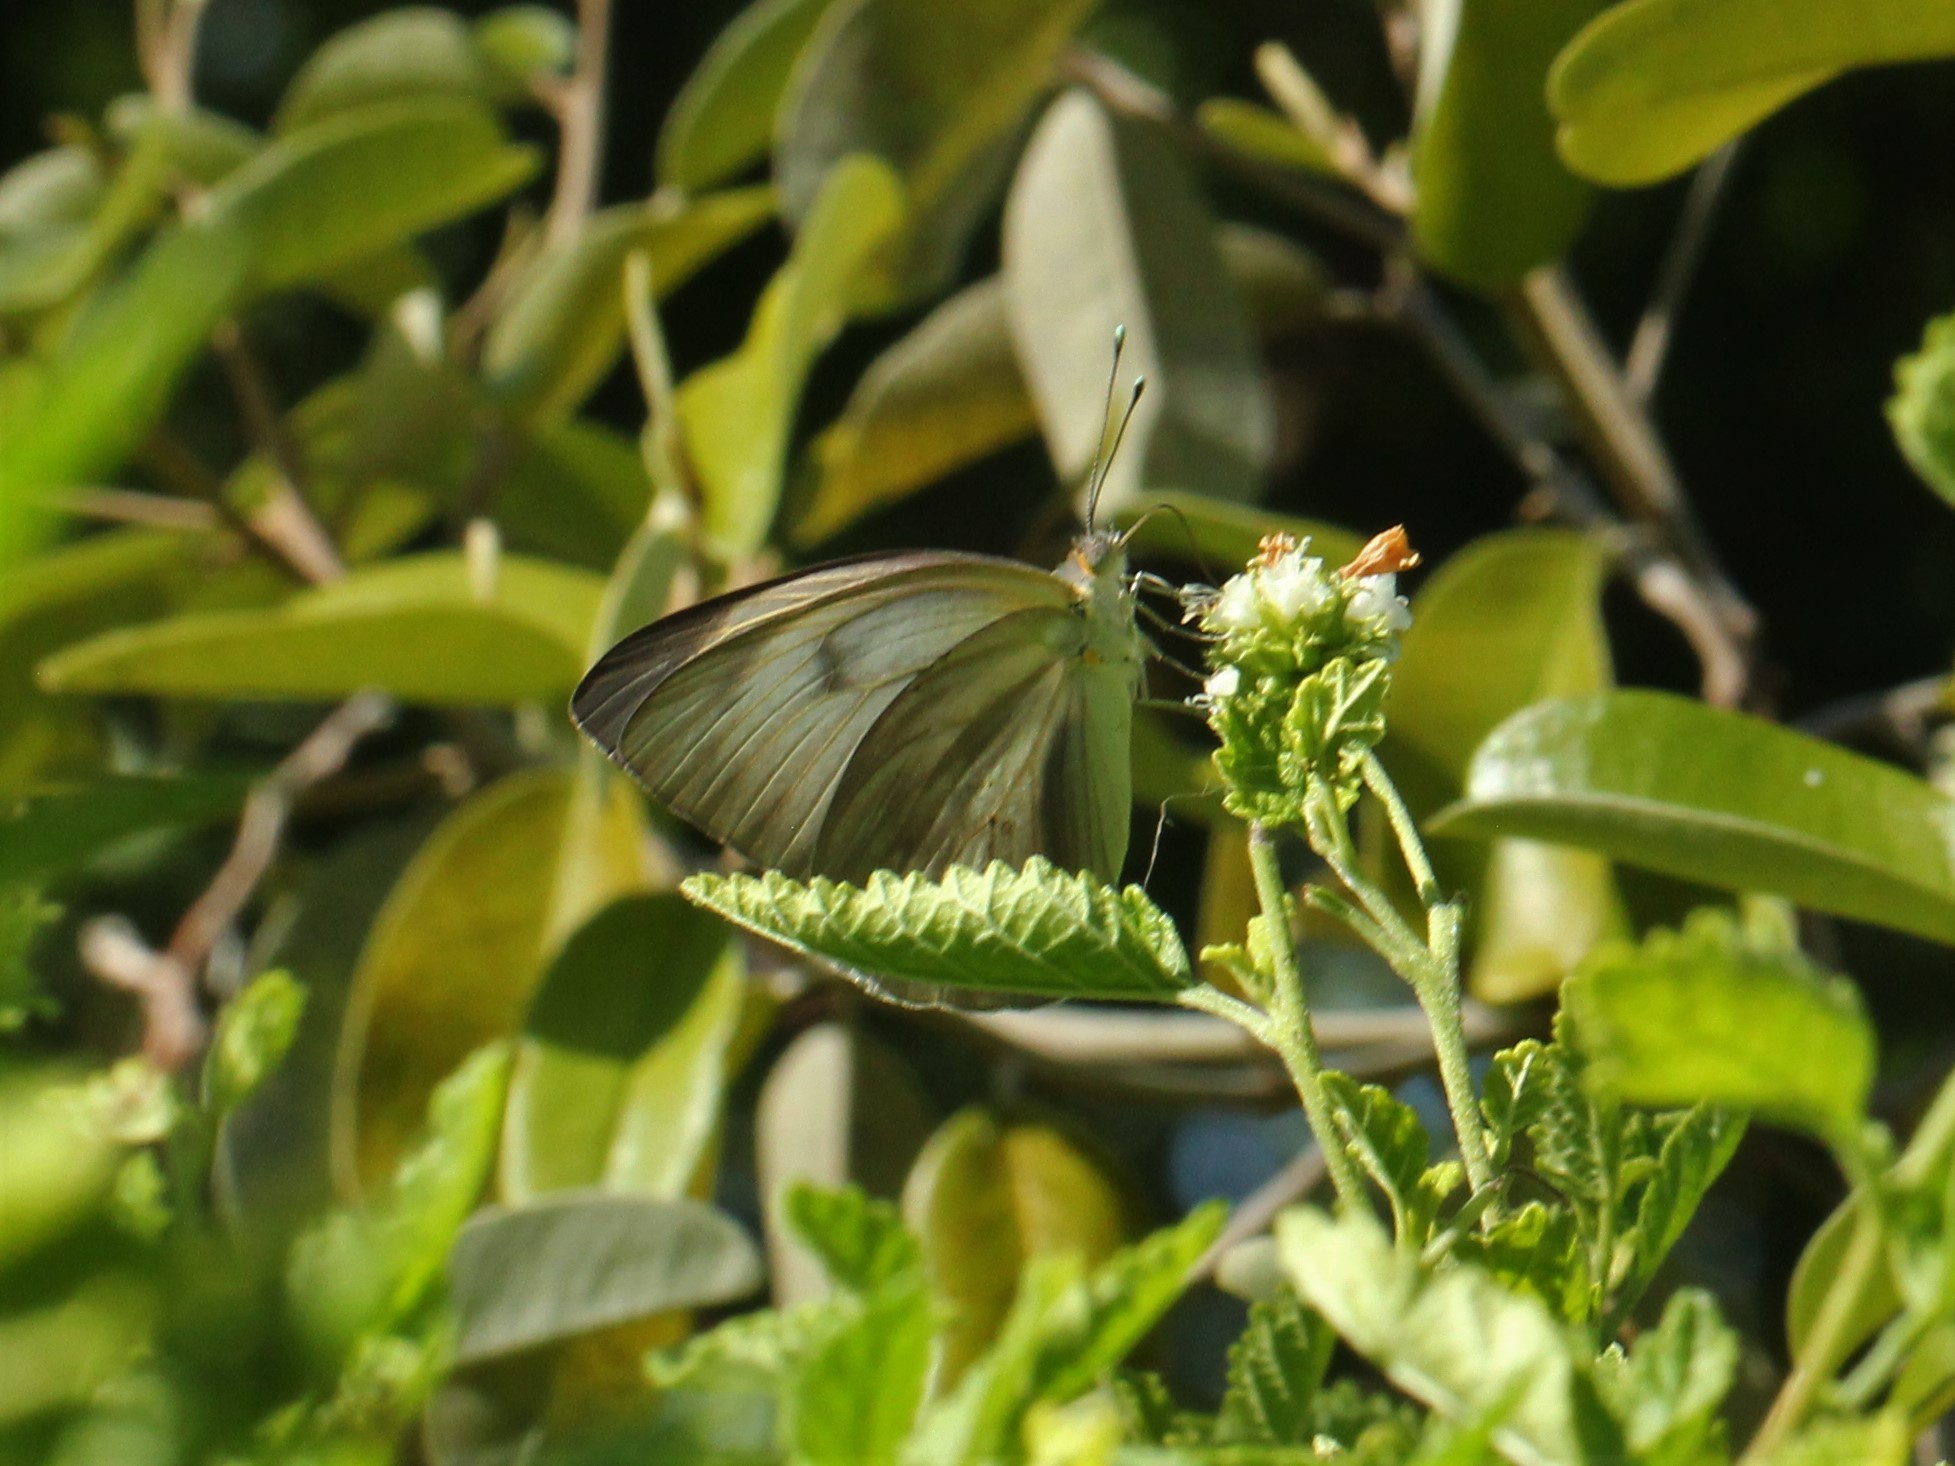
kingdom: Animalia
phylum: Arthropoda
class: Insecta
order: Lepidoptera
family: Pieridae
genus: Ascia
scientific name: Ascia monuste
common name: Great southern white
